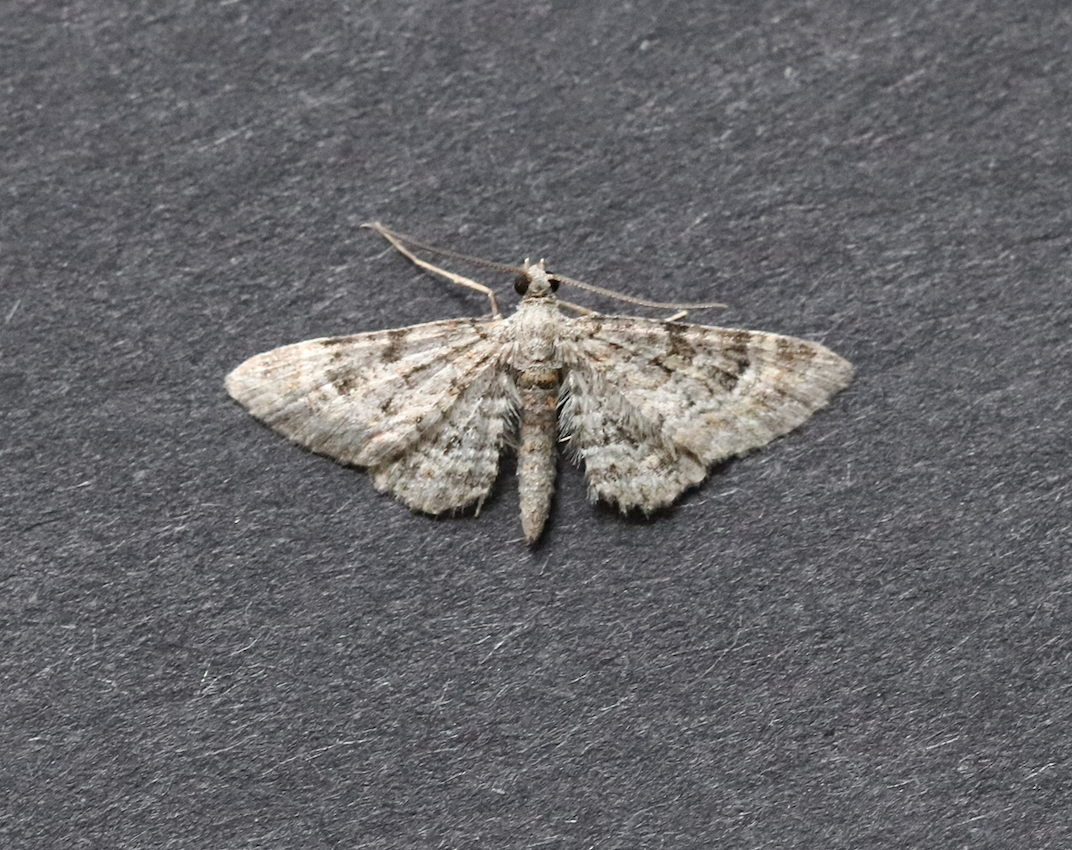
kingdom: Animalia
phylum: Arthropoda
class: Insecta
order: Lepidoptera
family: Geometridae
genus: Gymnoscelis
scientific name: Gymnoscelis rufifasciata
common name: Double-striped pug
